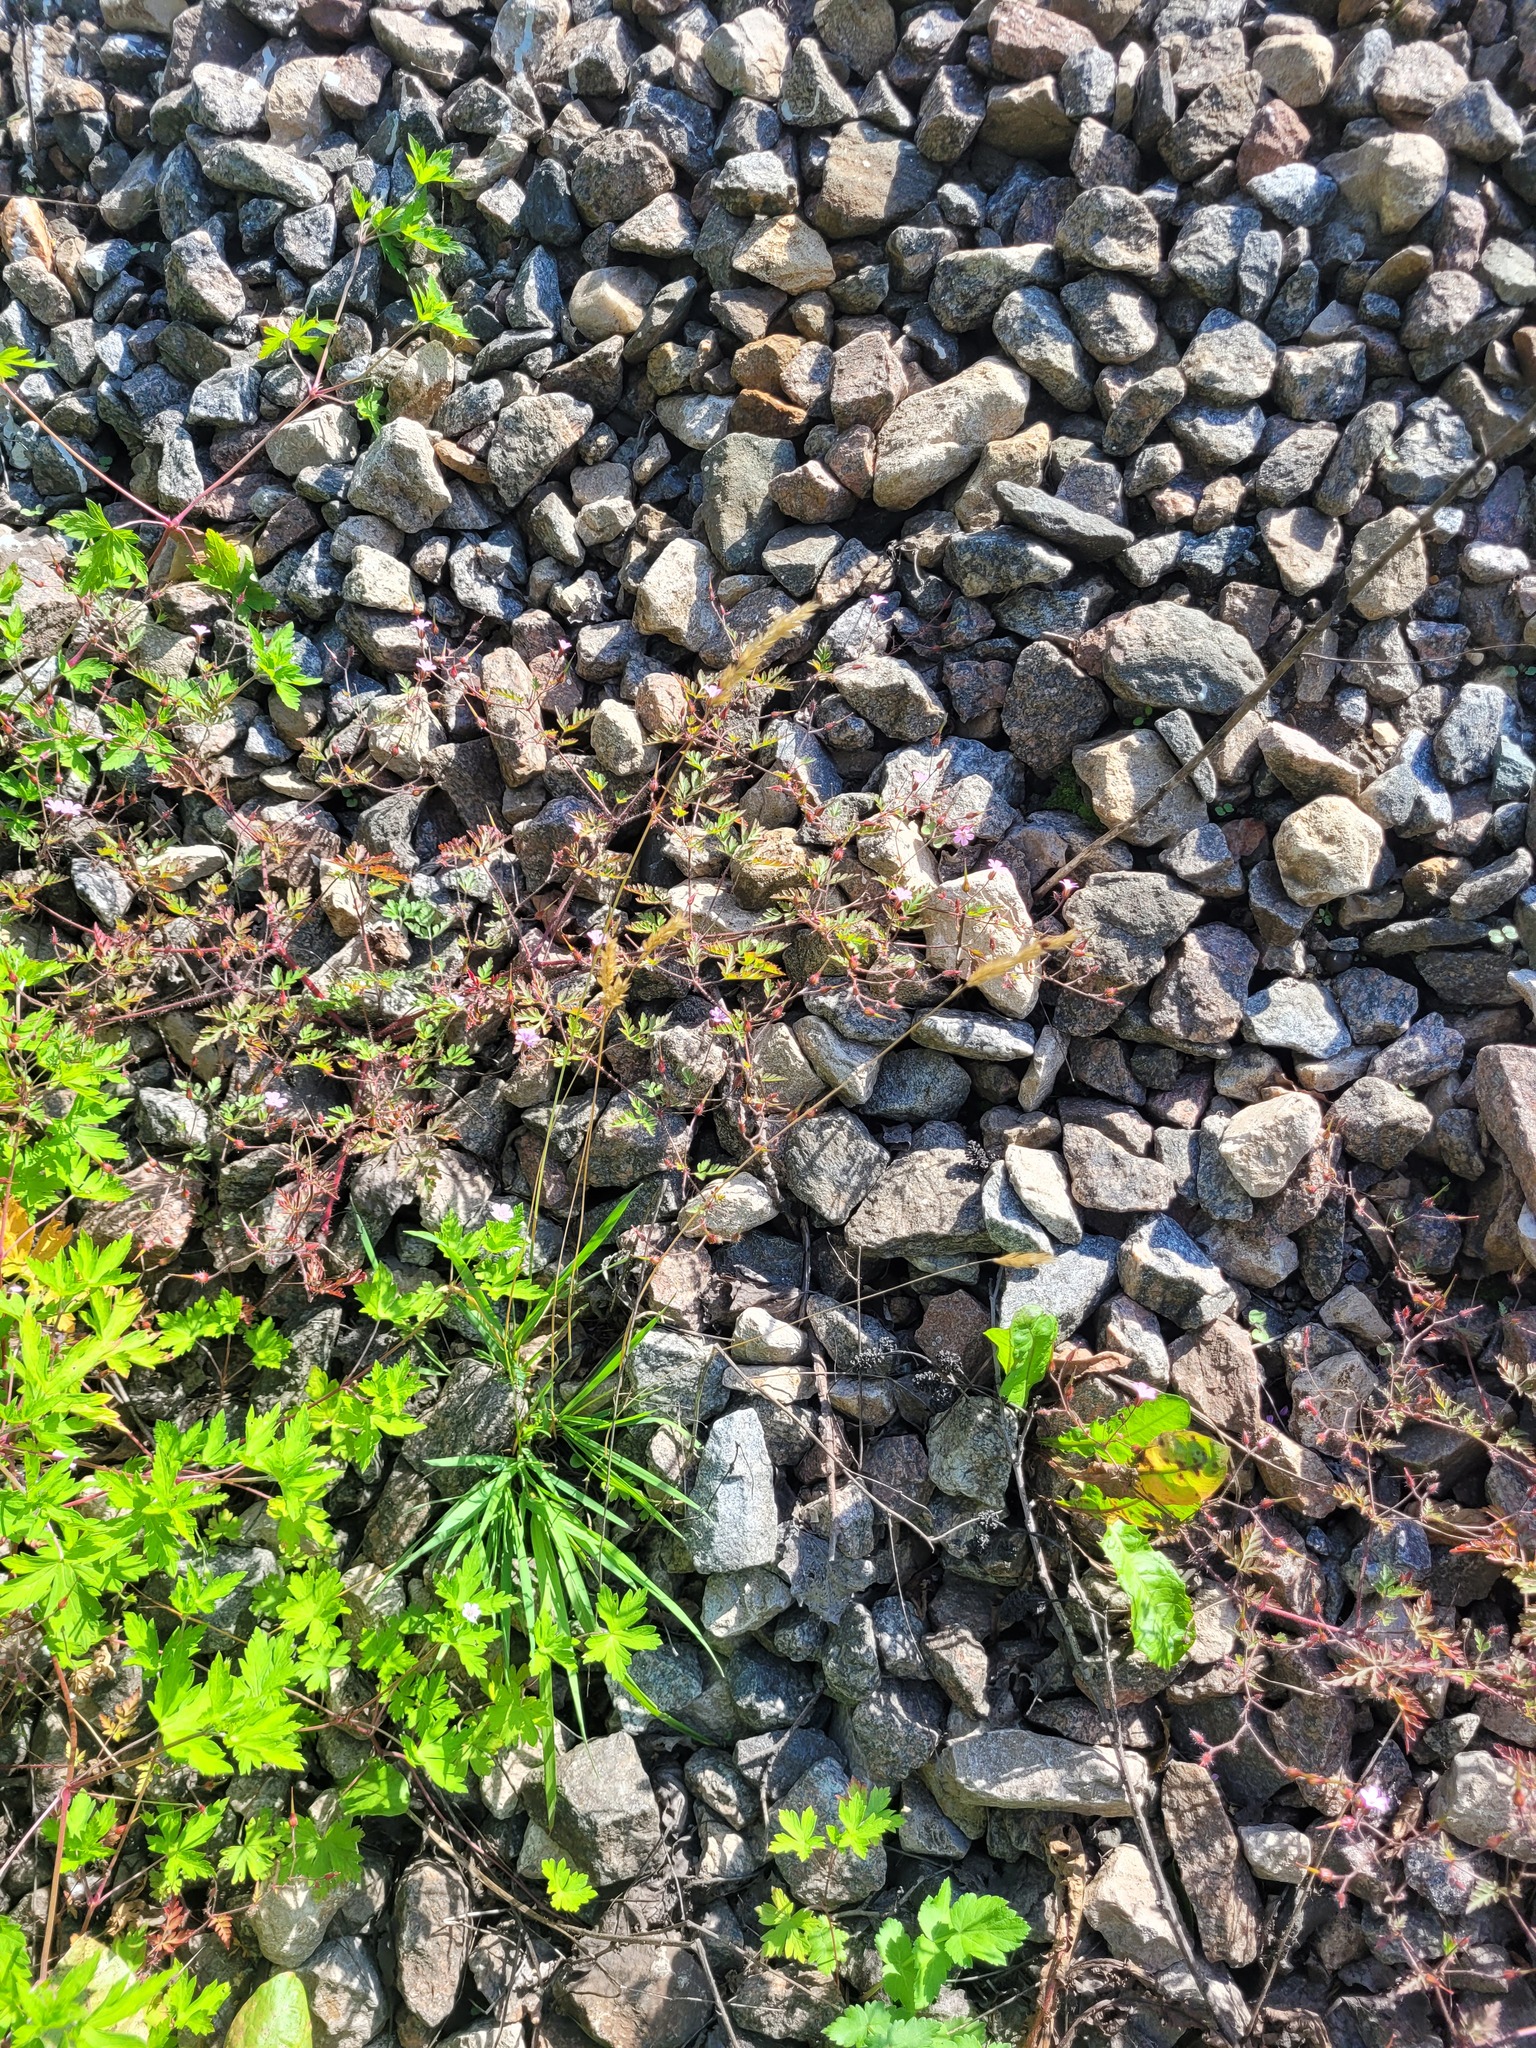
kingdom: Plantae
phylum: Tracheophyta
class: Liliopsida
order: Poales
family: Poaceae
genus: Anthoxanthum
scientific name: Anthoxanthum odoratum
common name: Sweet vernalgrass
